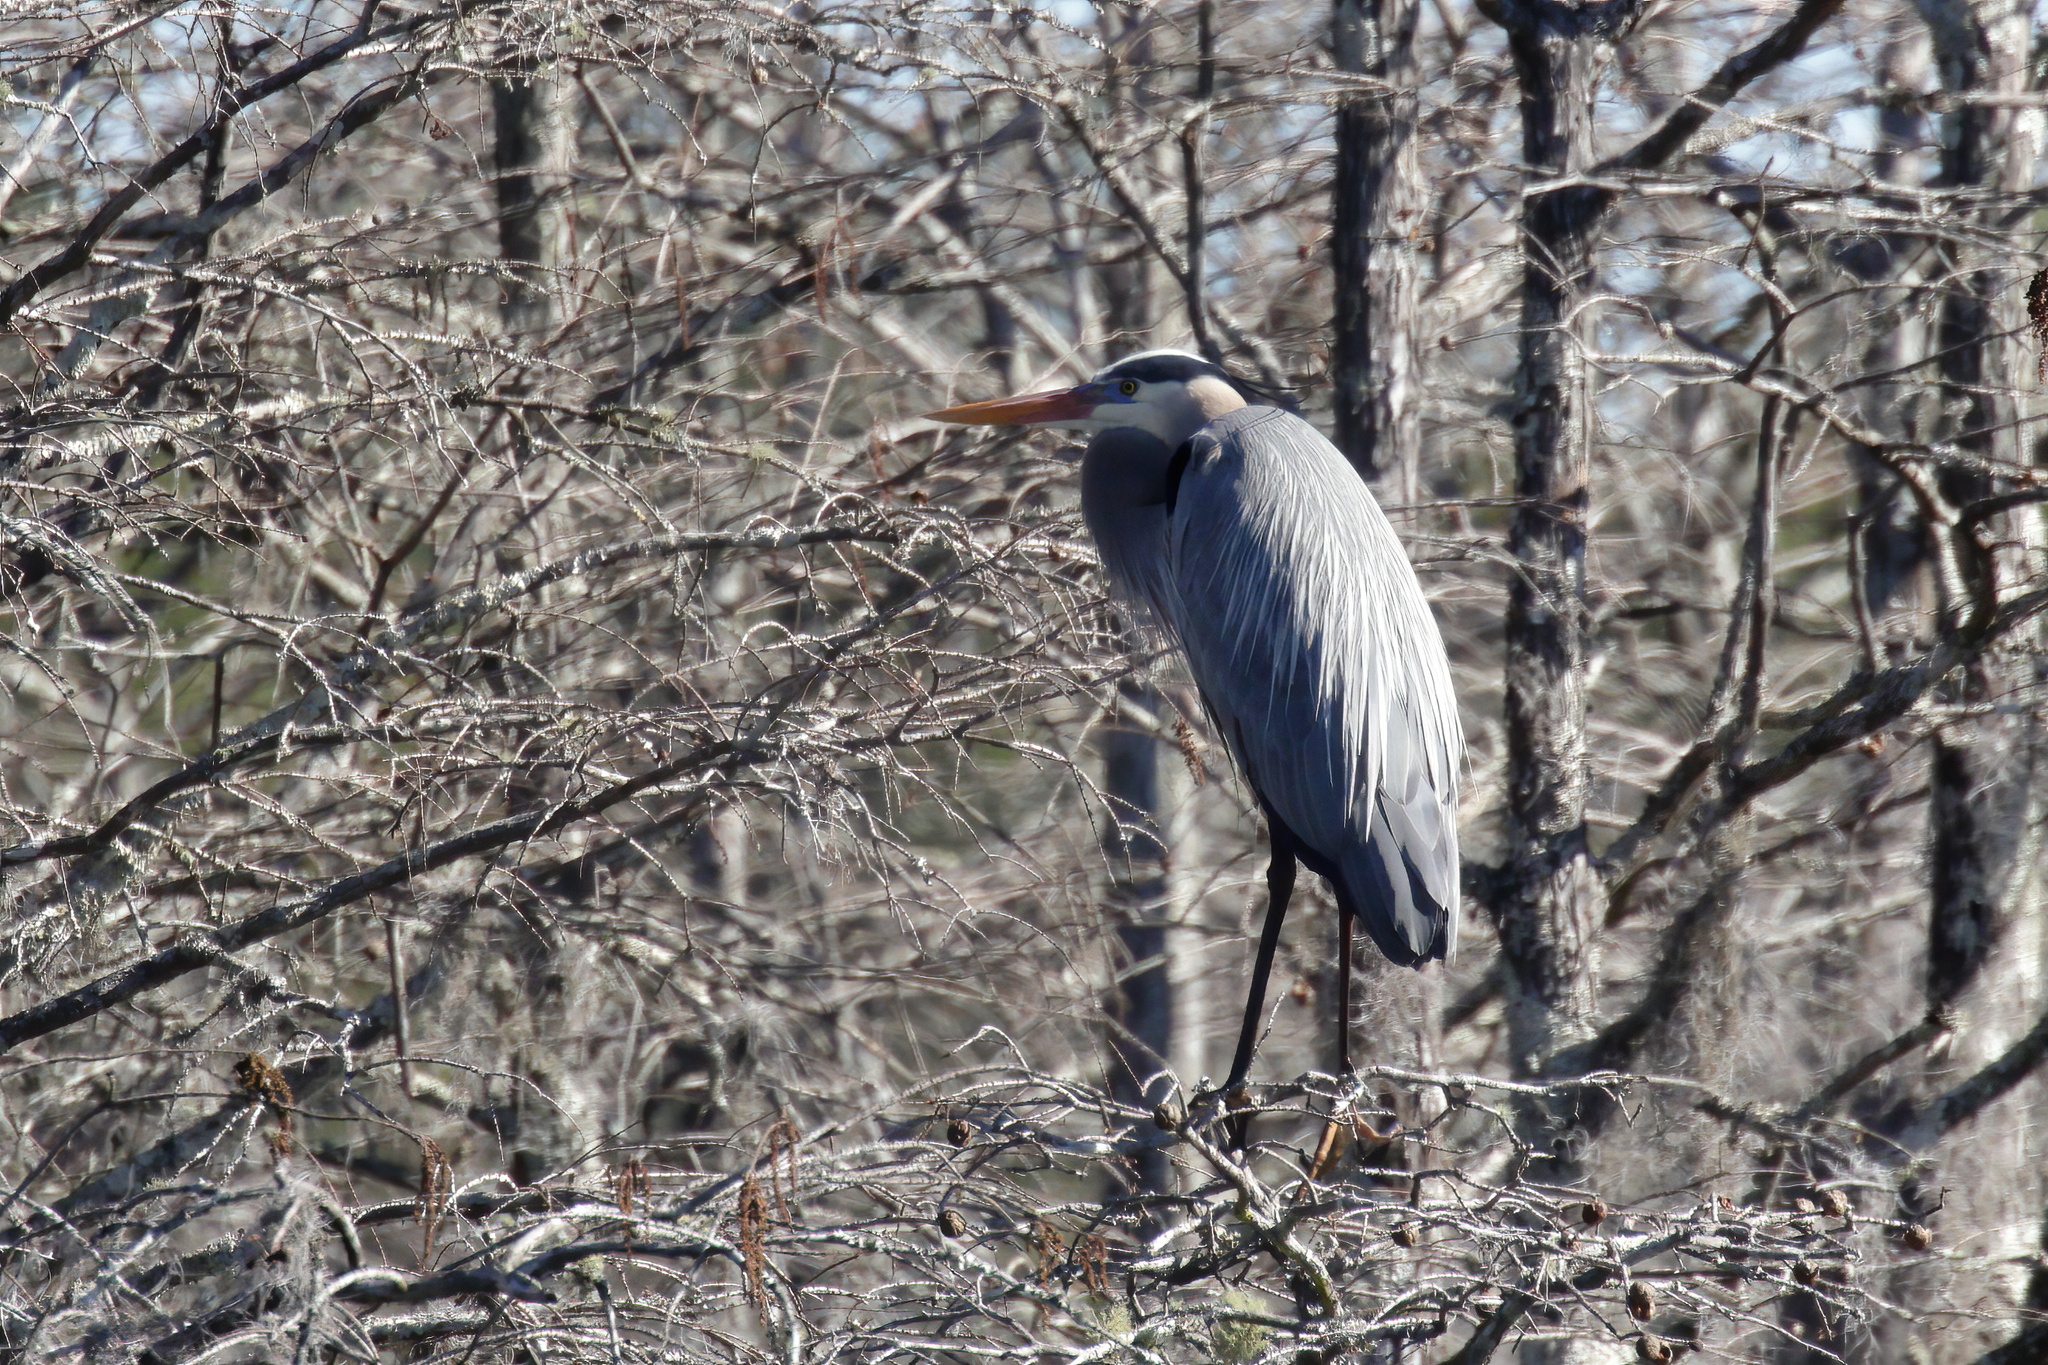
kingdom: Animalia
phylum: Chordata
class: Aves
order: Pelecaniformes
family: Ardeidae
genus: Ardea
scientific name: Ardea herodias
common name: Great blue heron
